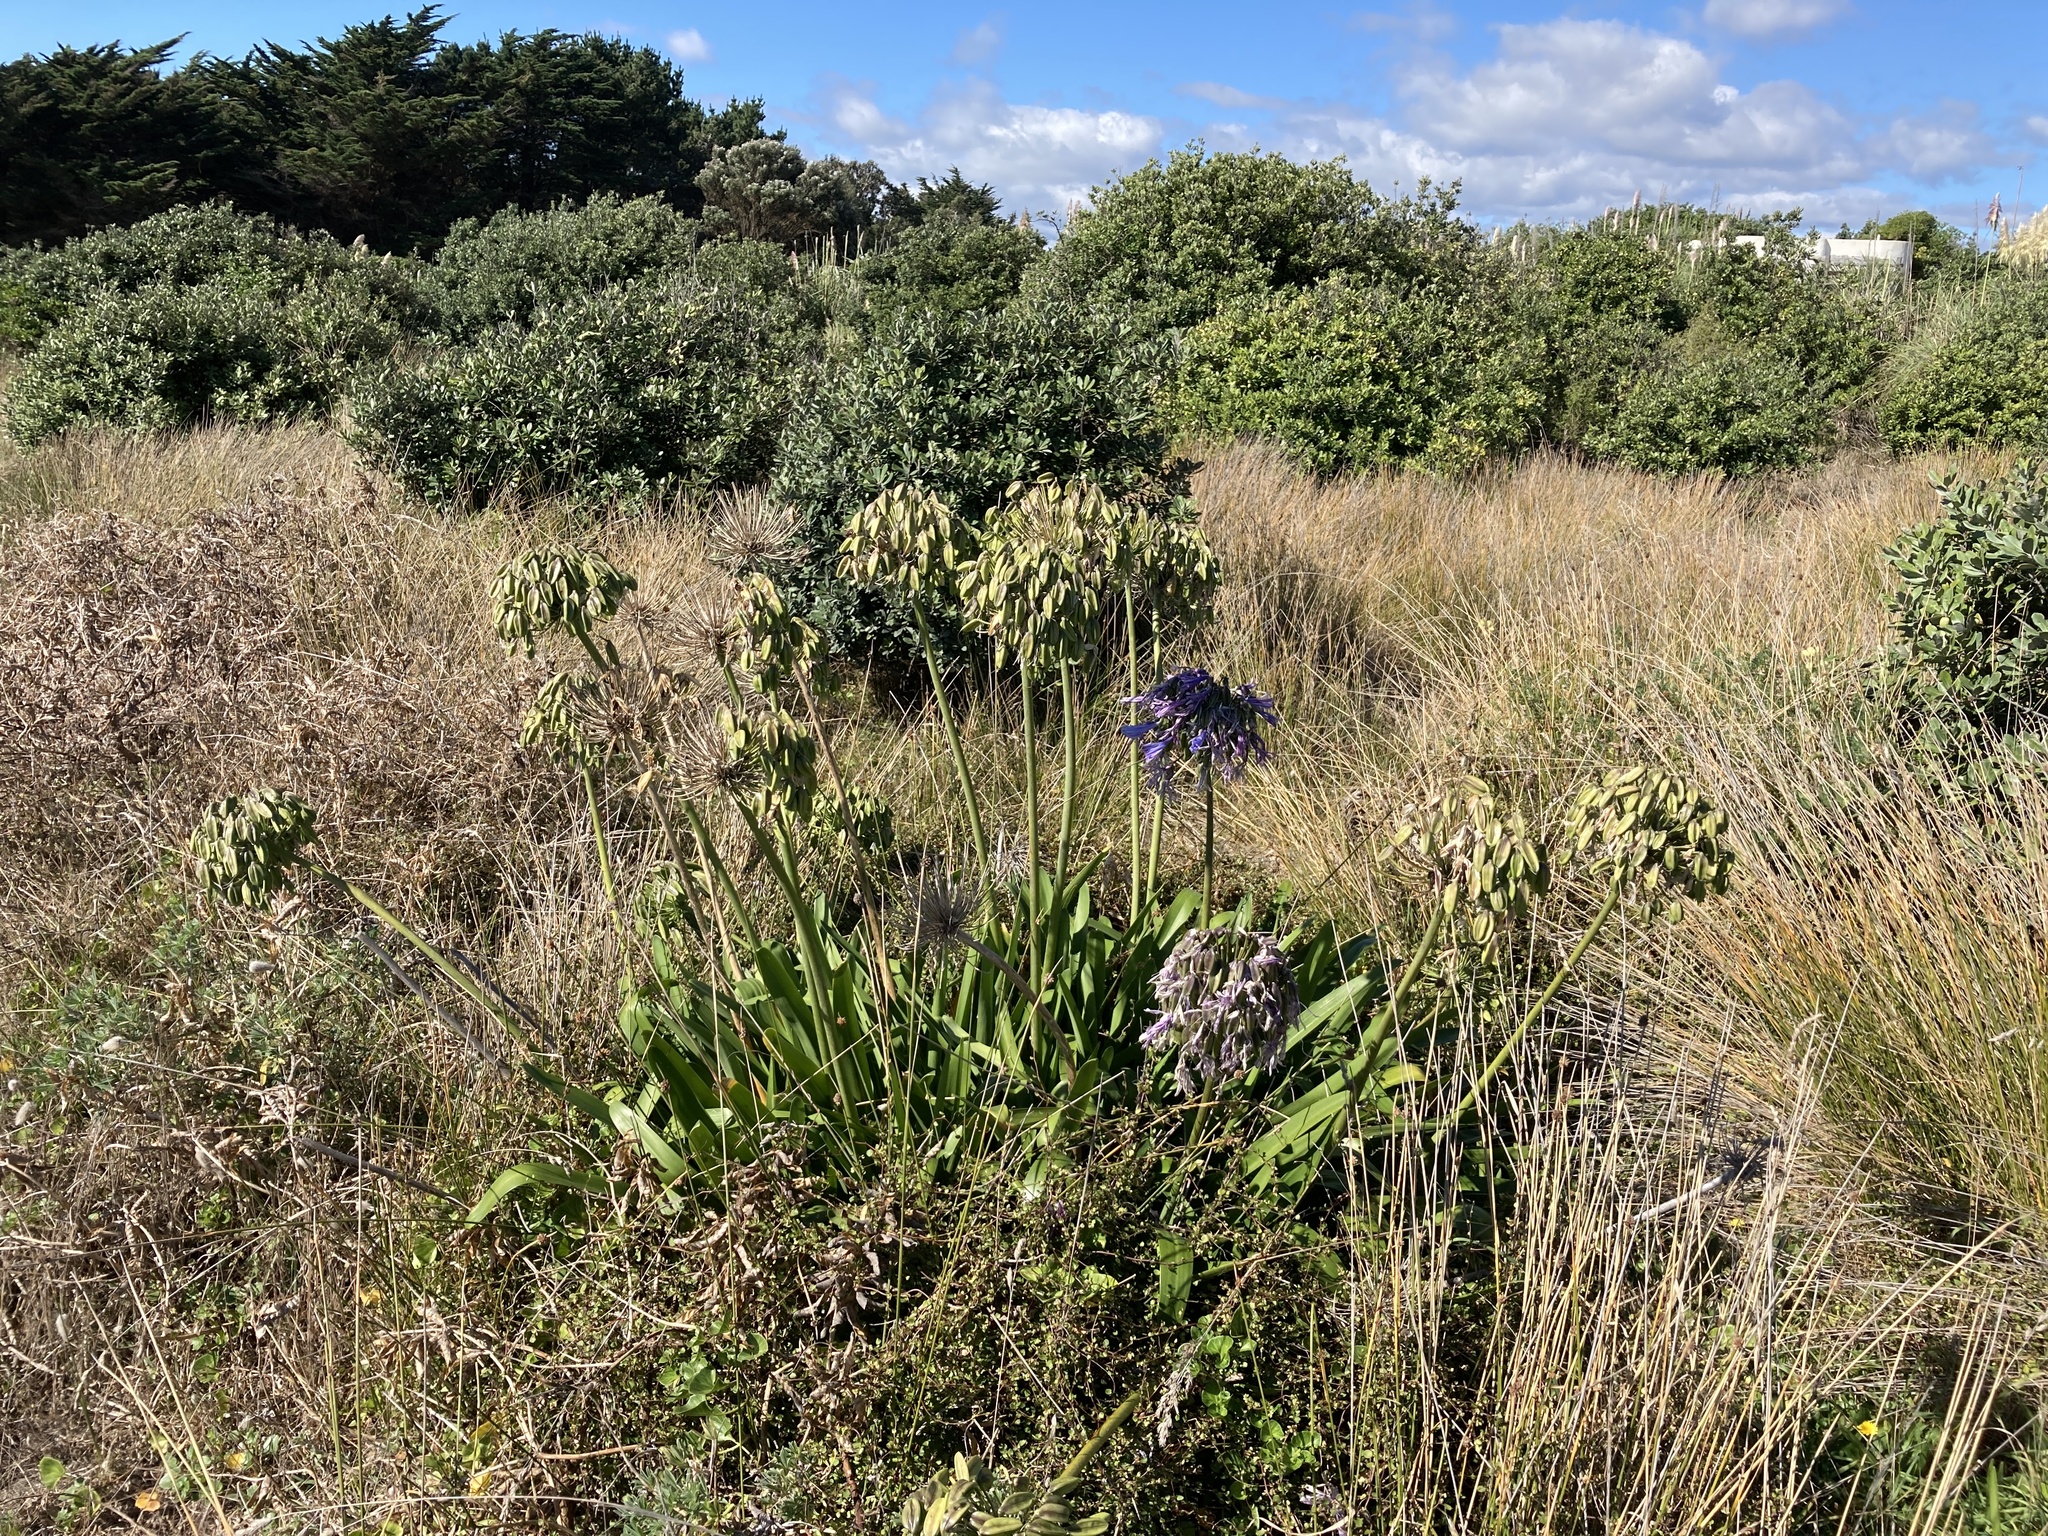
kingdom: Plantae
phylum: Tracheophyta
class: Liliopsida
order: Asparagales
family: Amaryllidaceae
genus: Agapanthus
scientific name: Agapanthus praecox
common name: African-lily
